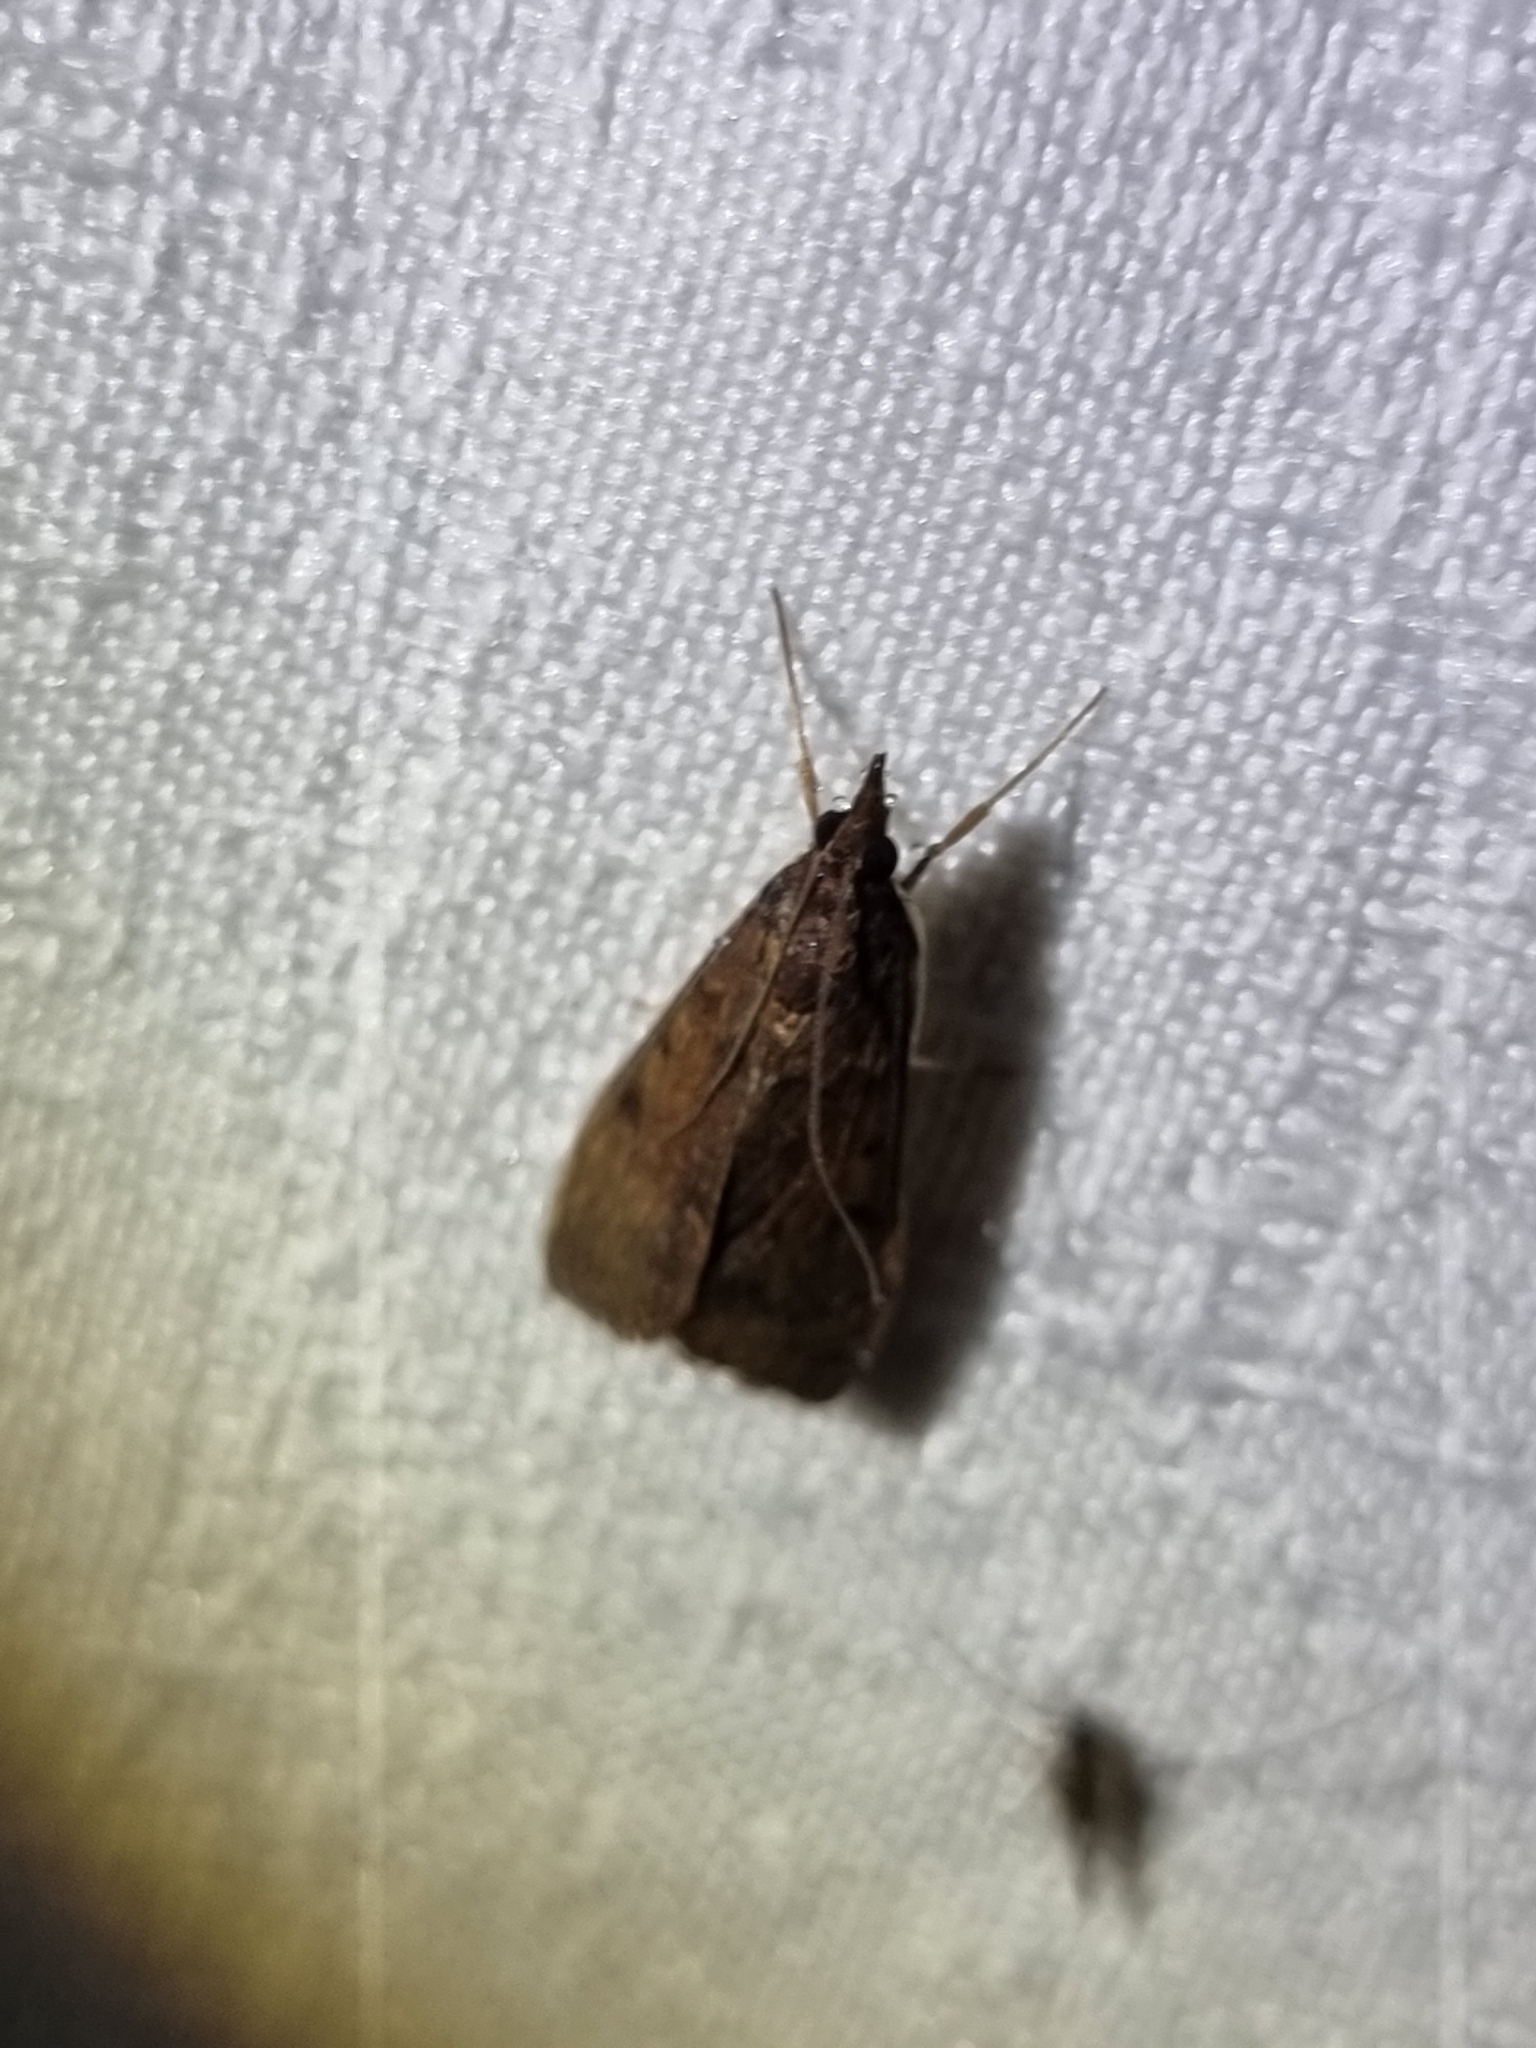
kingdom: Animalia
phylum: Arthropoda
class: Insecta
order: Lepidoptera
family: Crambidae
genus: Uresiphita
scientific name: Uresiphita ornithopteralis
